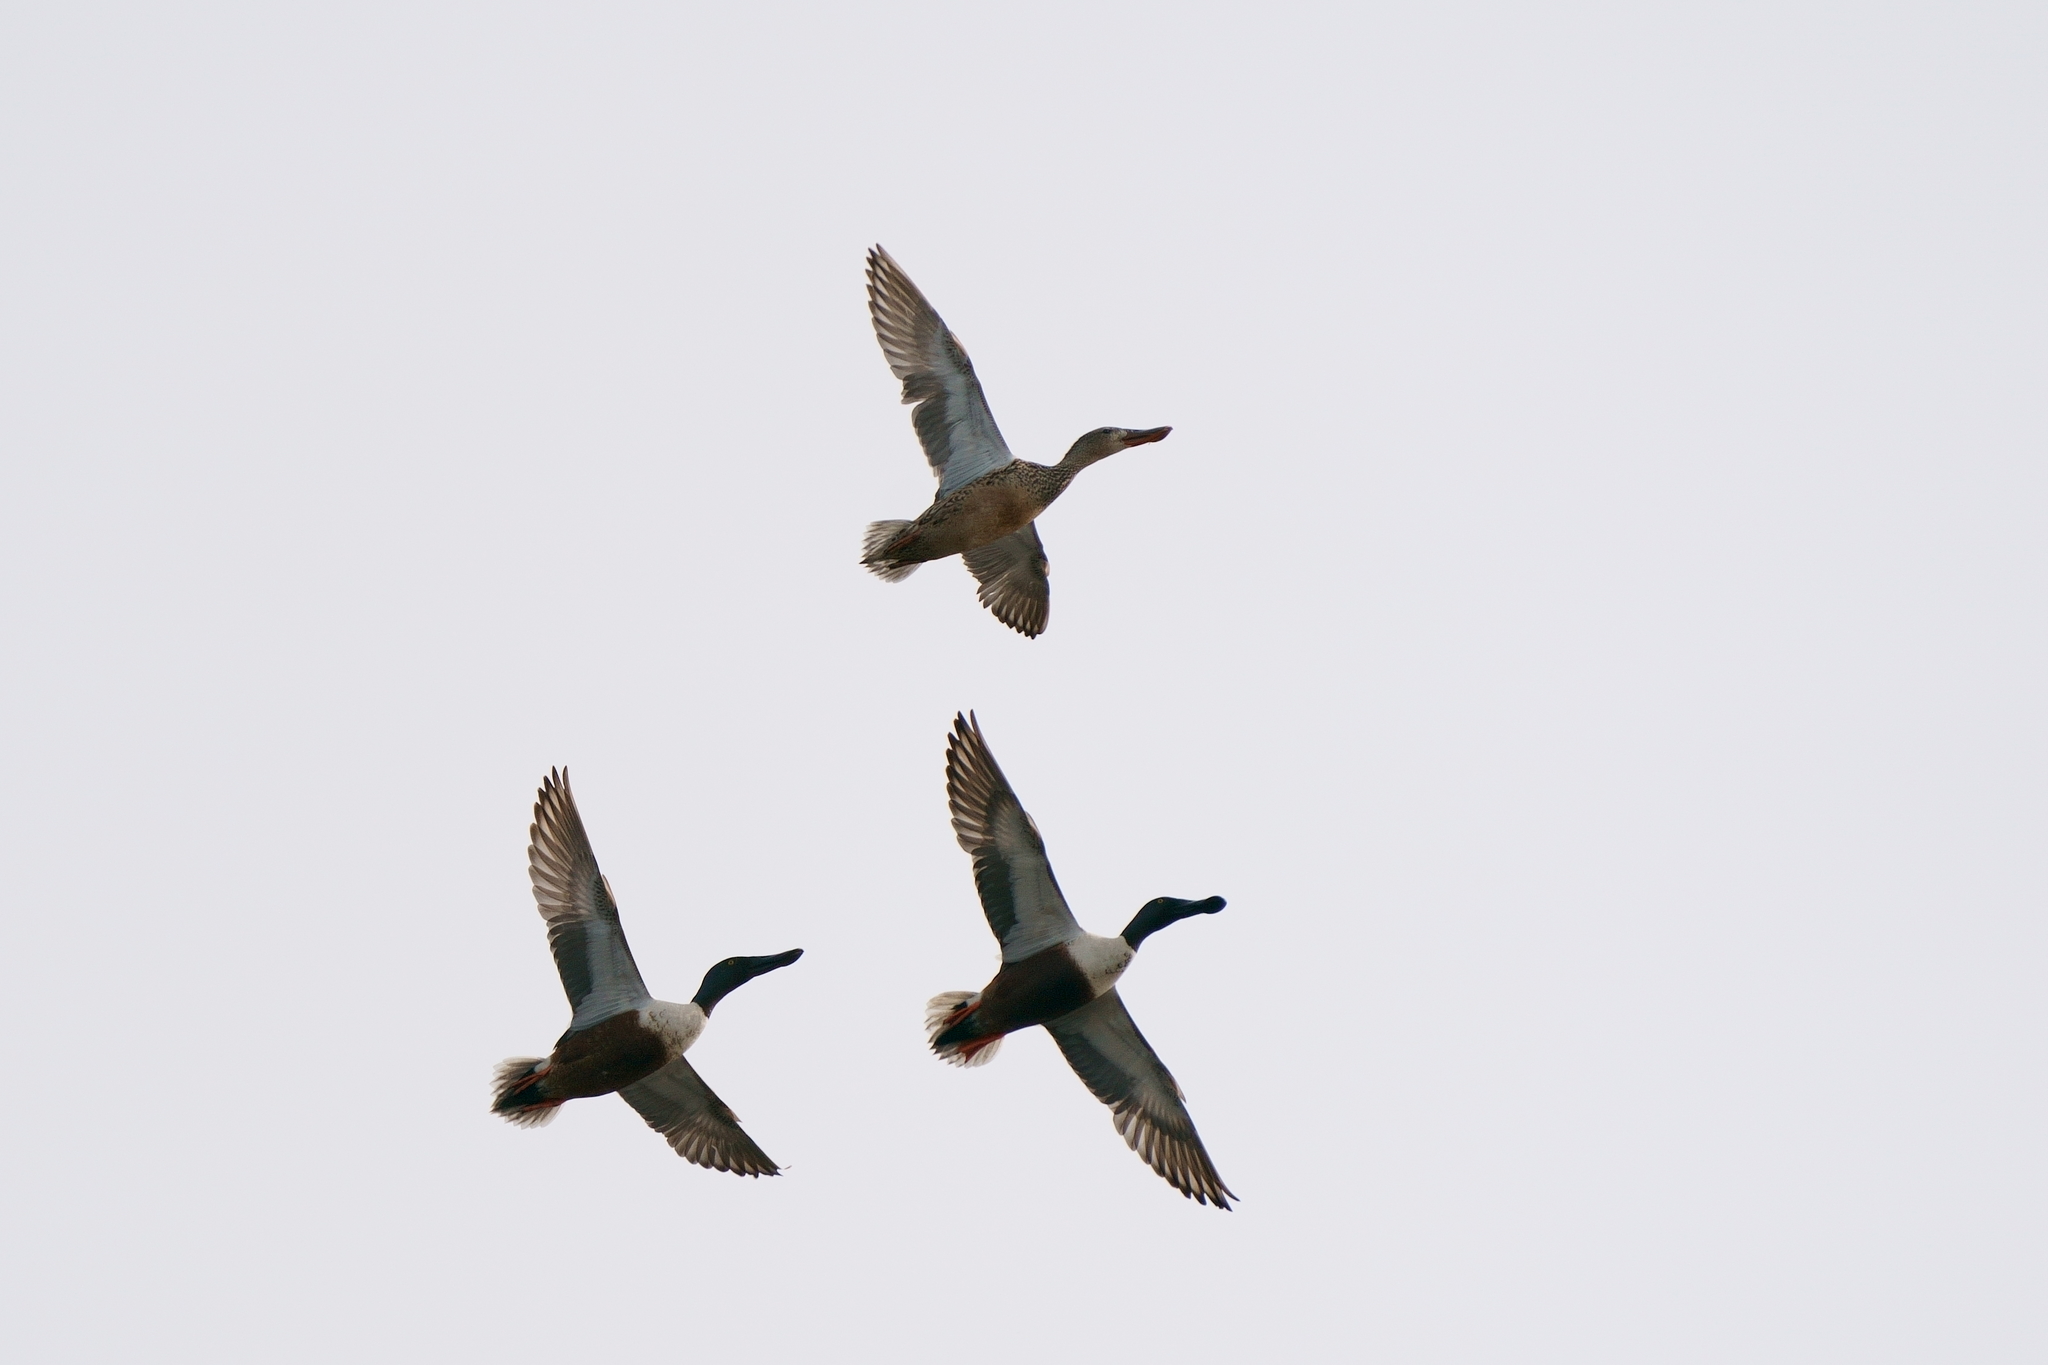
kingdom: Animalia
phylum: Chordata
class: Aves
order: Anseriformes
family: Anatidae
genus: Spatula
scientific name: Spatula clypeata
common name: Northern shoveler
